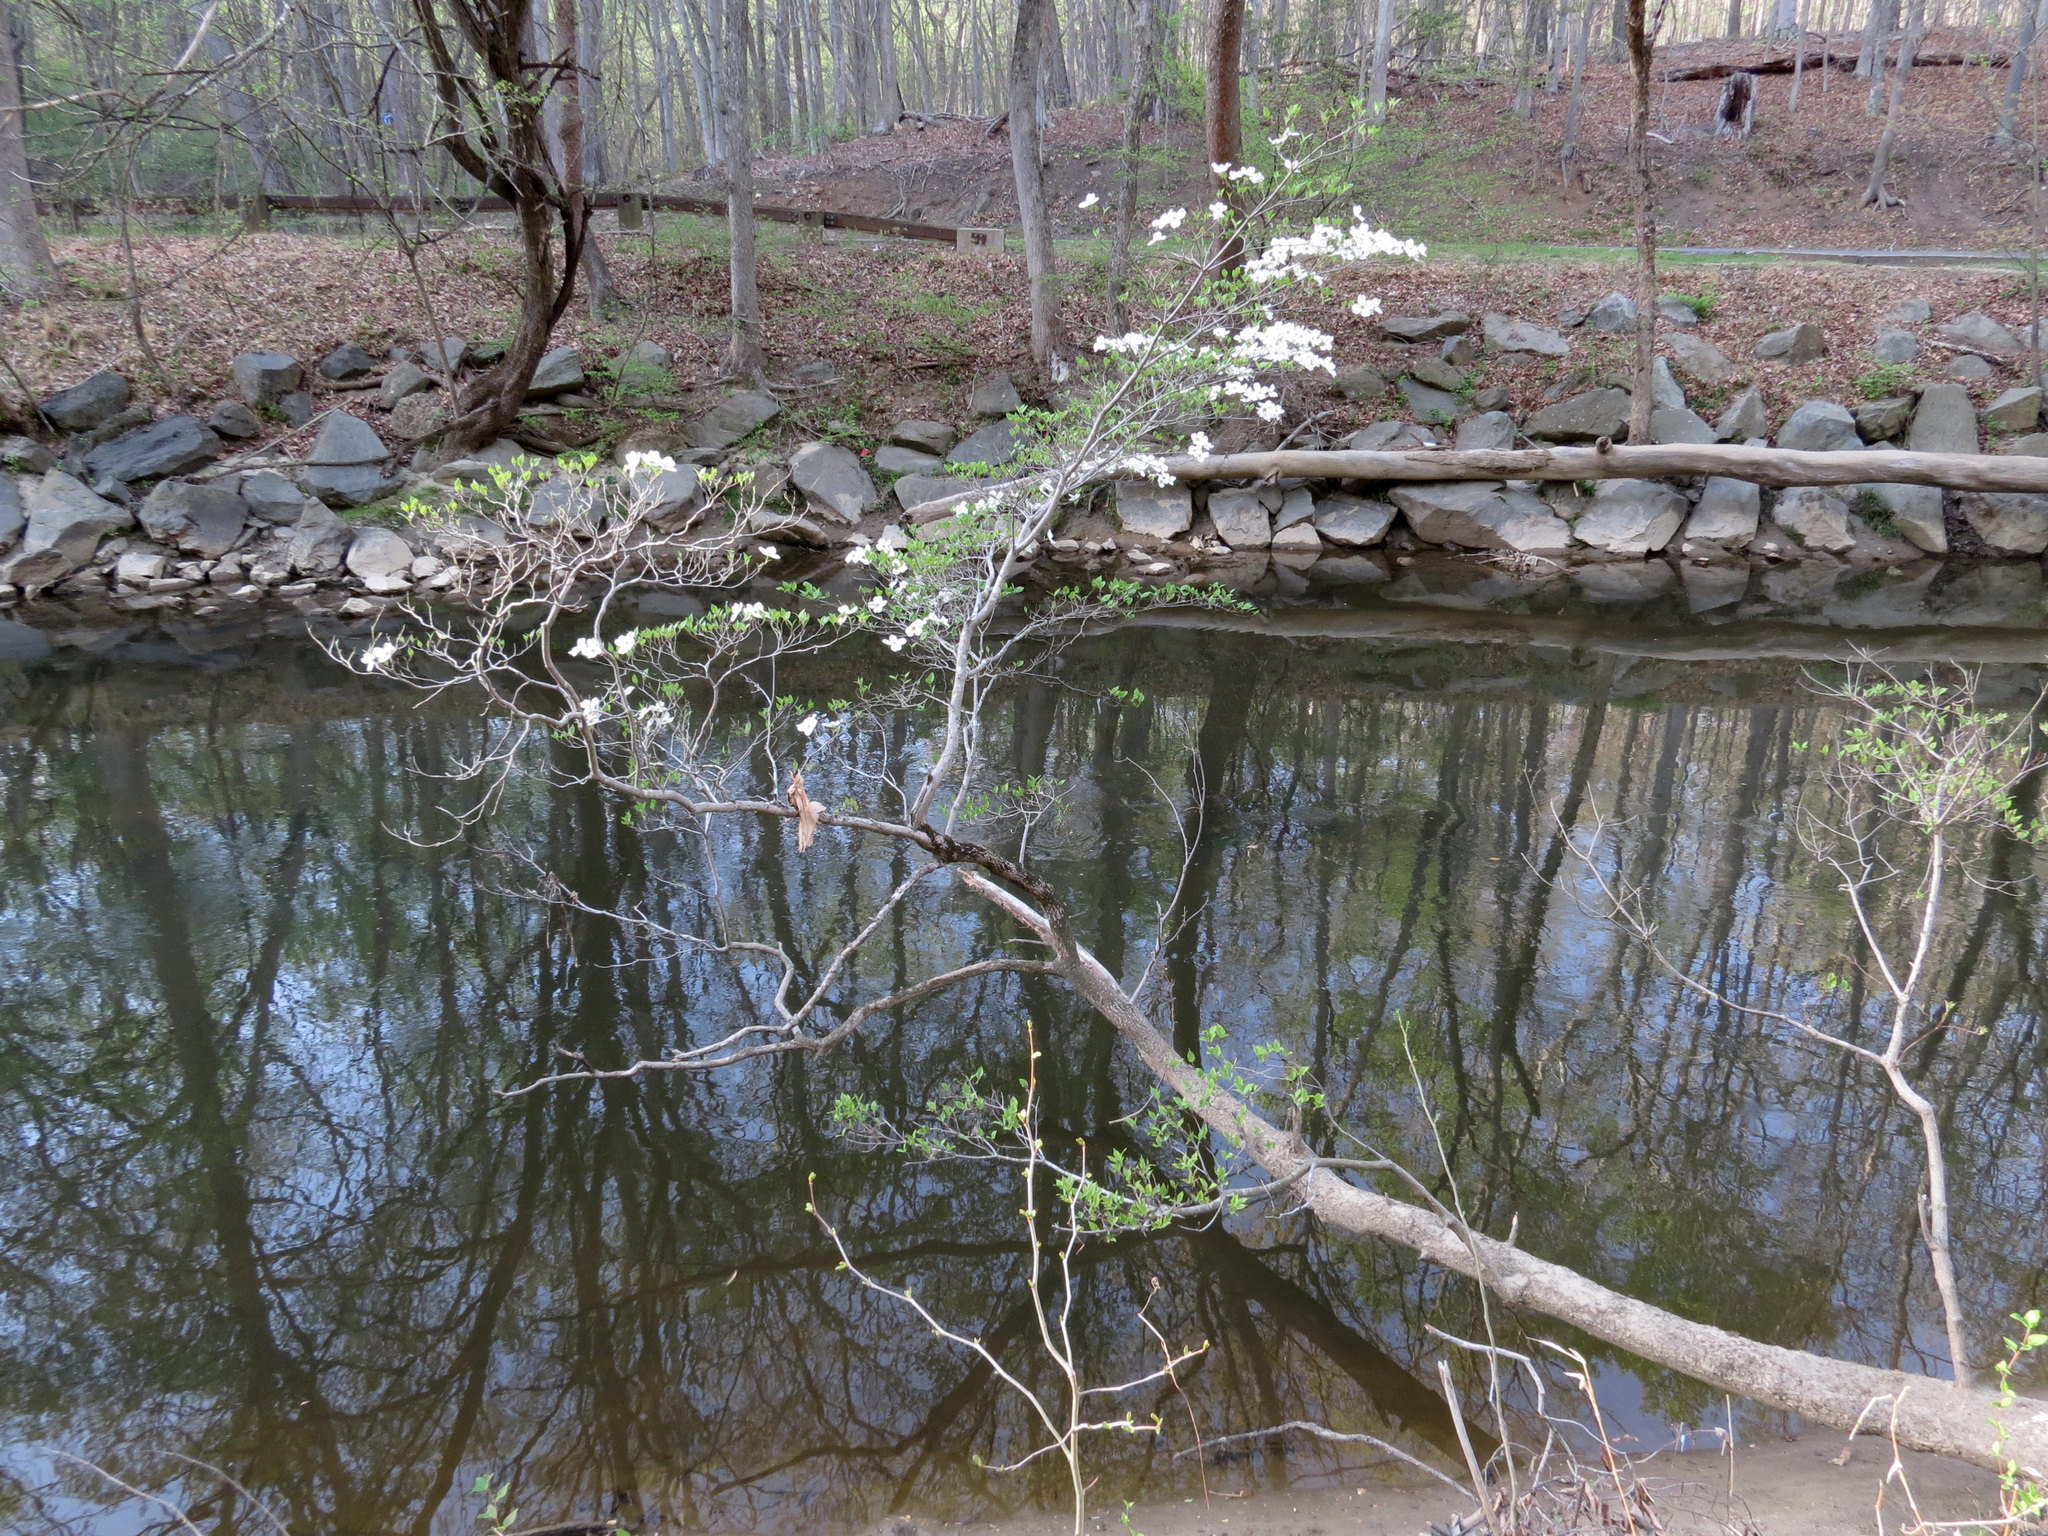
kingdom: Plantae
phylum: Tracheophyta
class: Magnoliopsida
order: Cornales
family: Cornaceae
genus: Cornus
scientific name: Cornus florida
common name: Flowering dogwood
